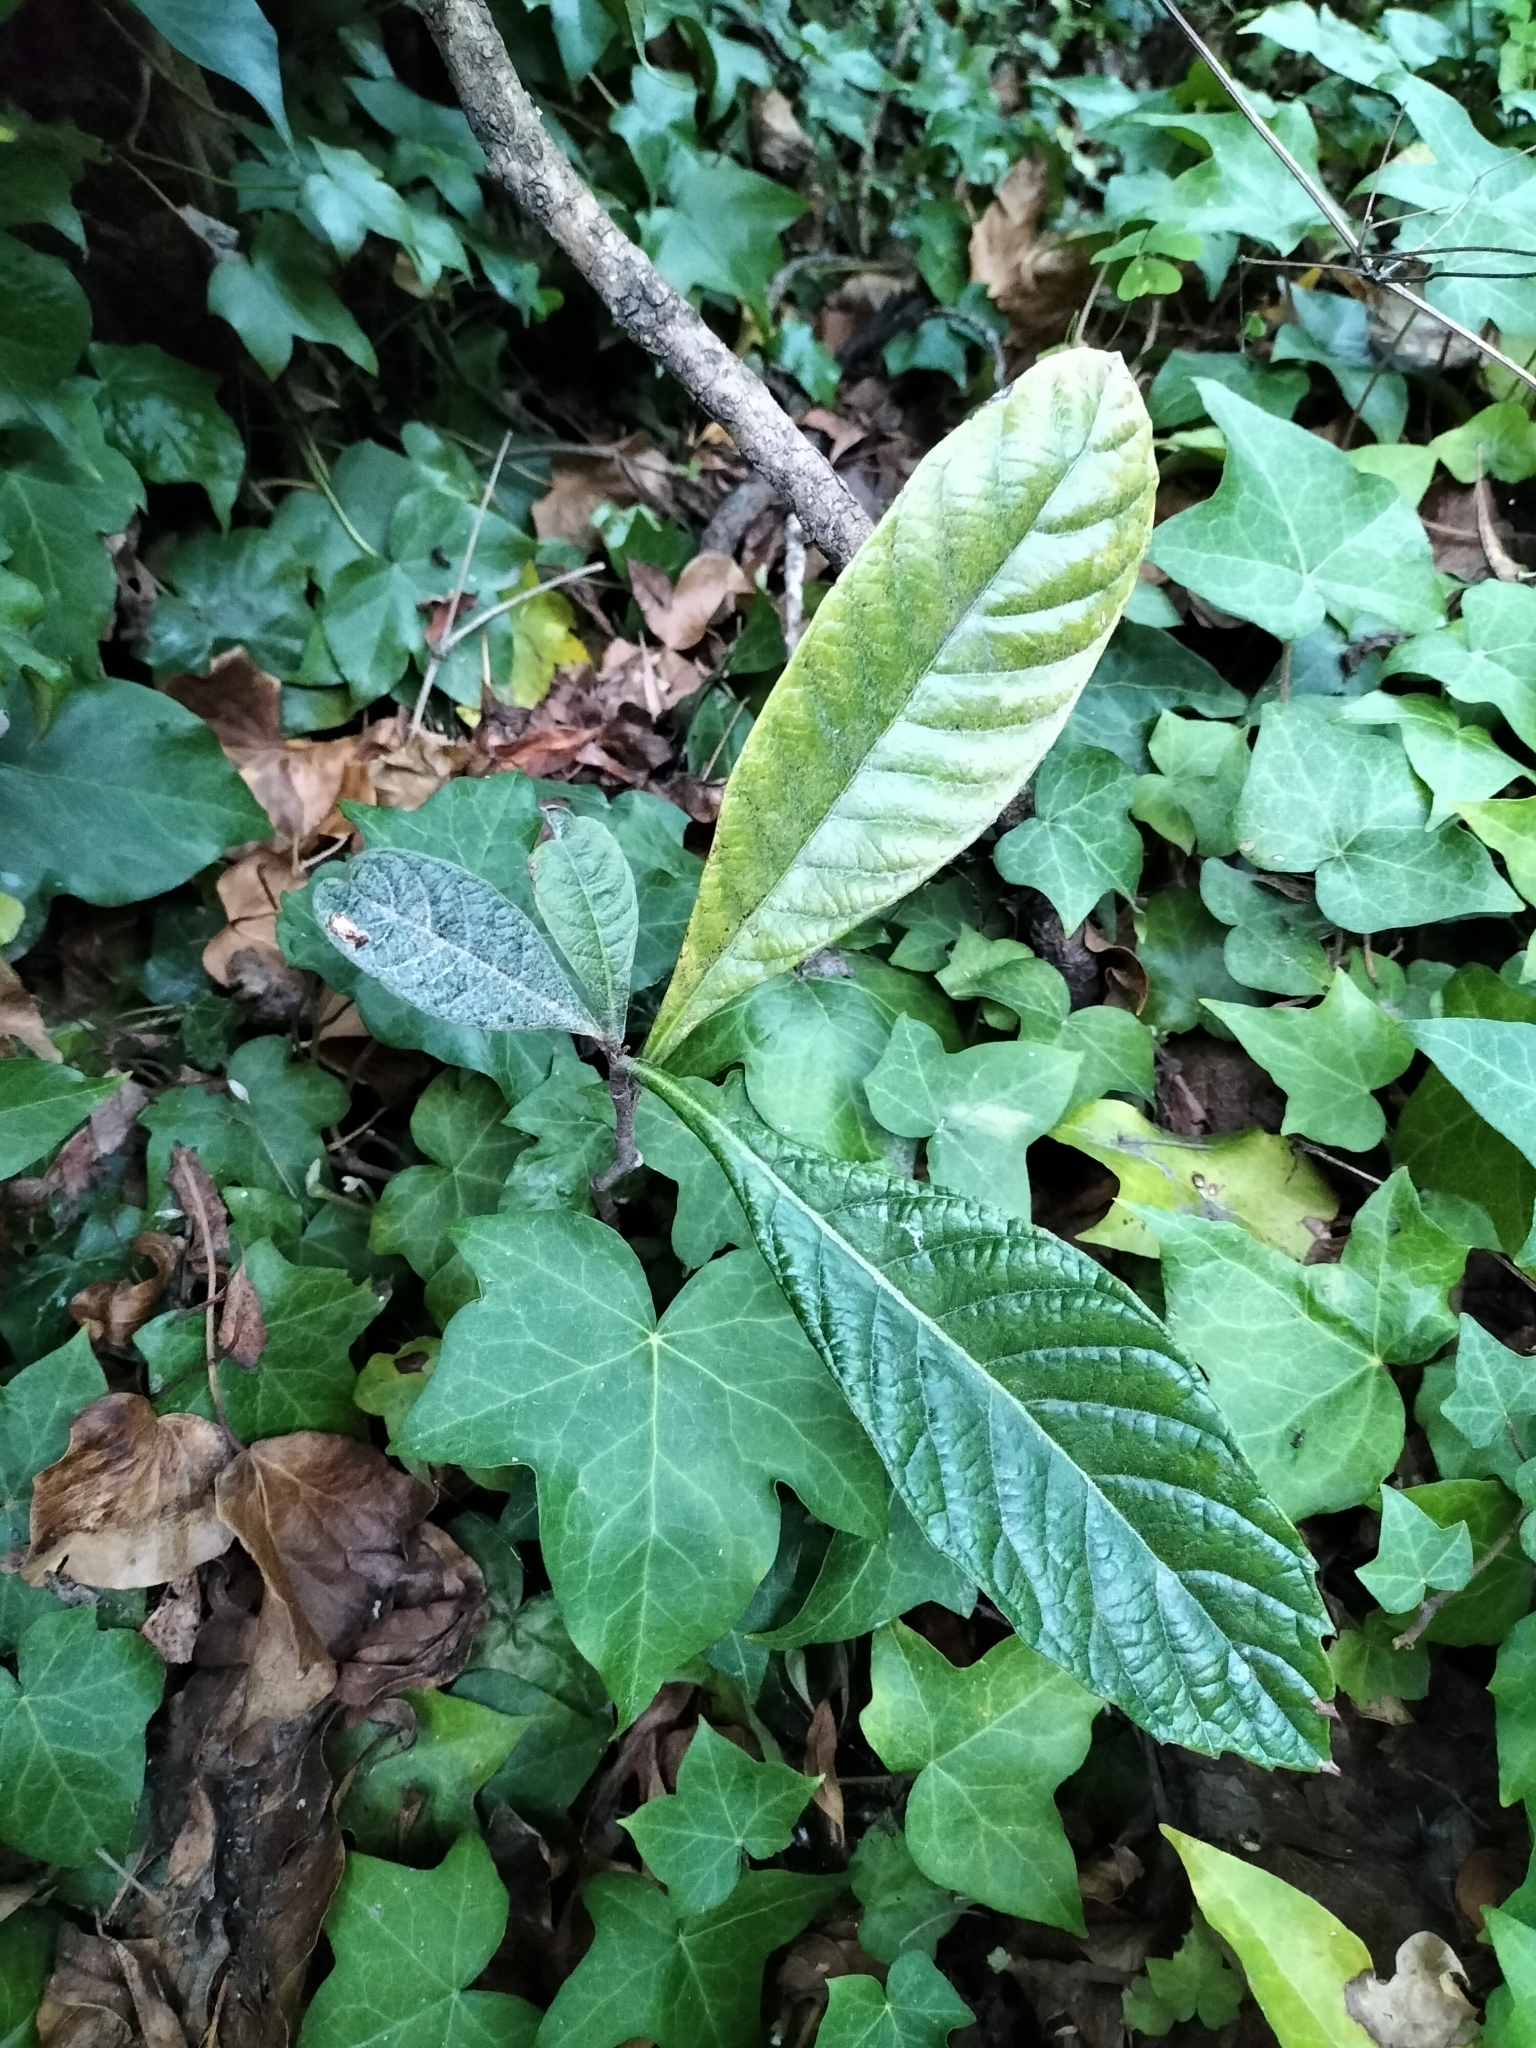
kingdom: Plantae
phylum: Tracheophyta
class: Magnoliopsida
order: Rosales
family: Rosaceae
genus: Rhaphiolepis
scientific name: Rhaphiolepis bibas
